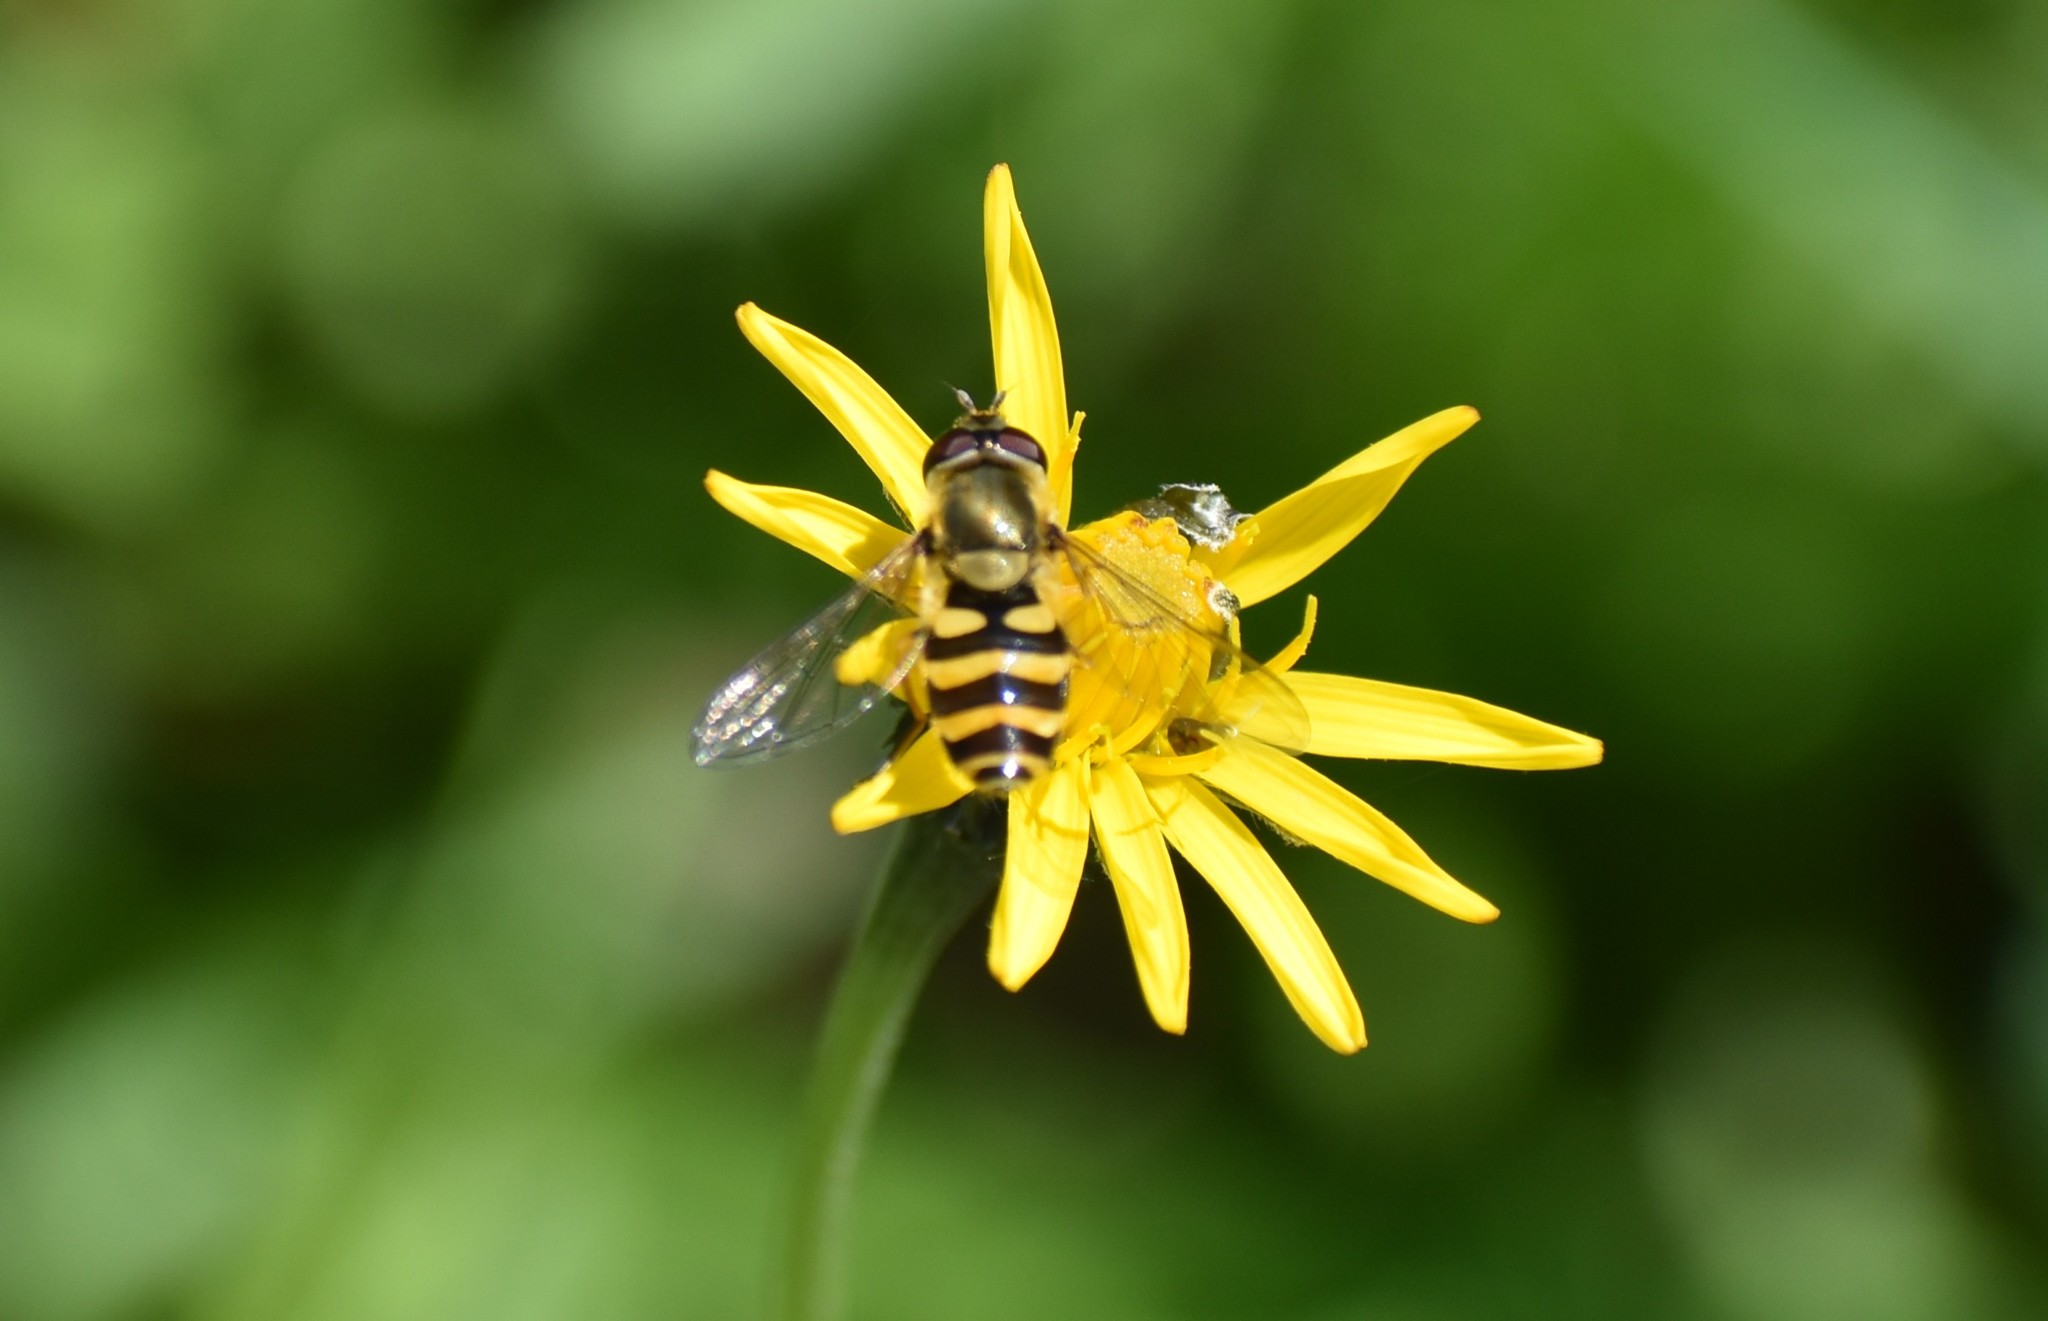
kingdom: Animalia
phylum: Arthropoda
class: Insecta
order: Diptera
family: Syrphidae
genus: Syrphus
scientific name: Syrphus
